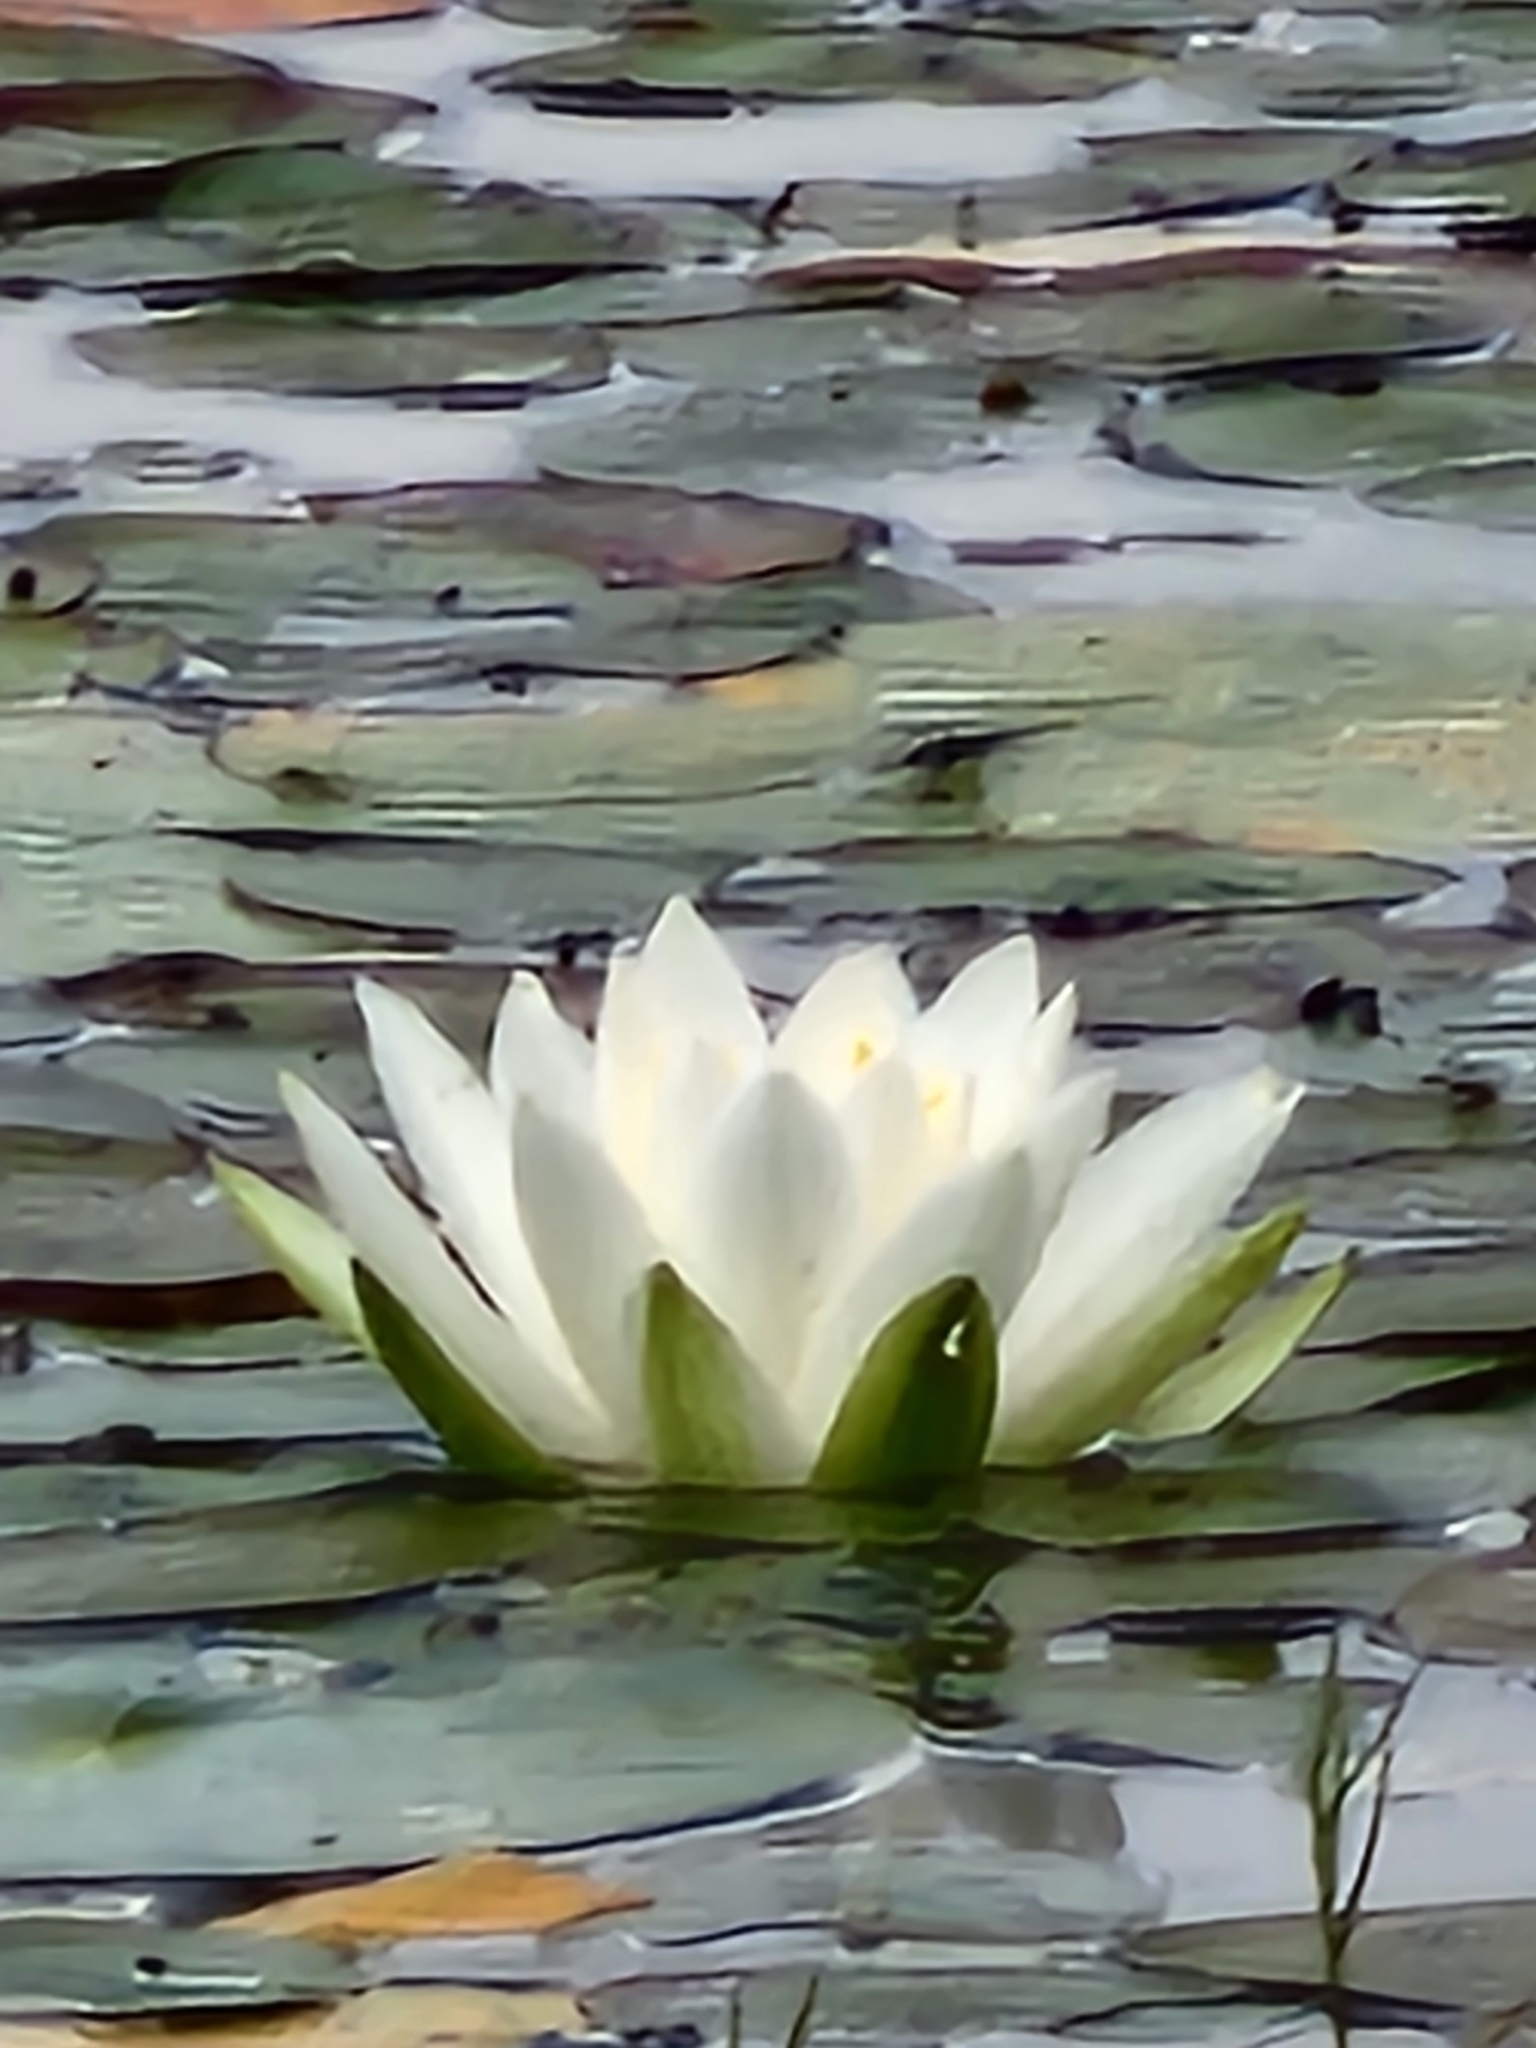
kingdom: Plantae
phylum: Tracheophyta
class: Magnoliopsida
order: Nymphaeales
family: Nymphaeaceae
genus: Nymphaea
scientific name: Nymphaea odorata
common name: Fragrant water-lily
